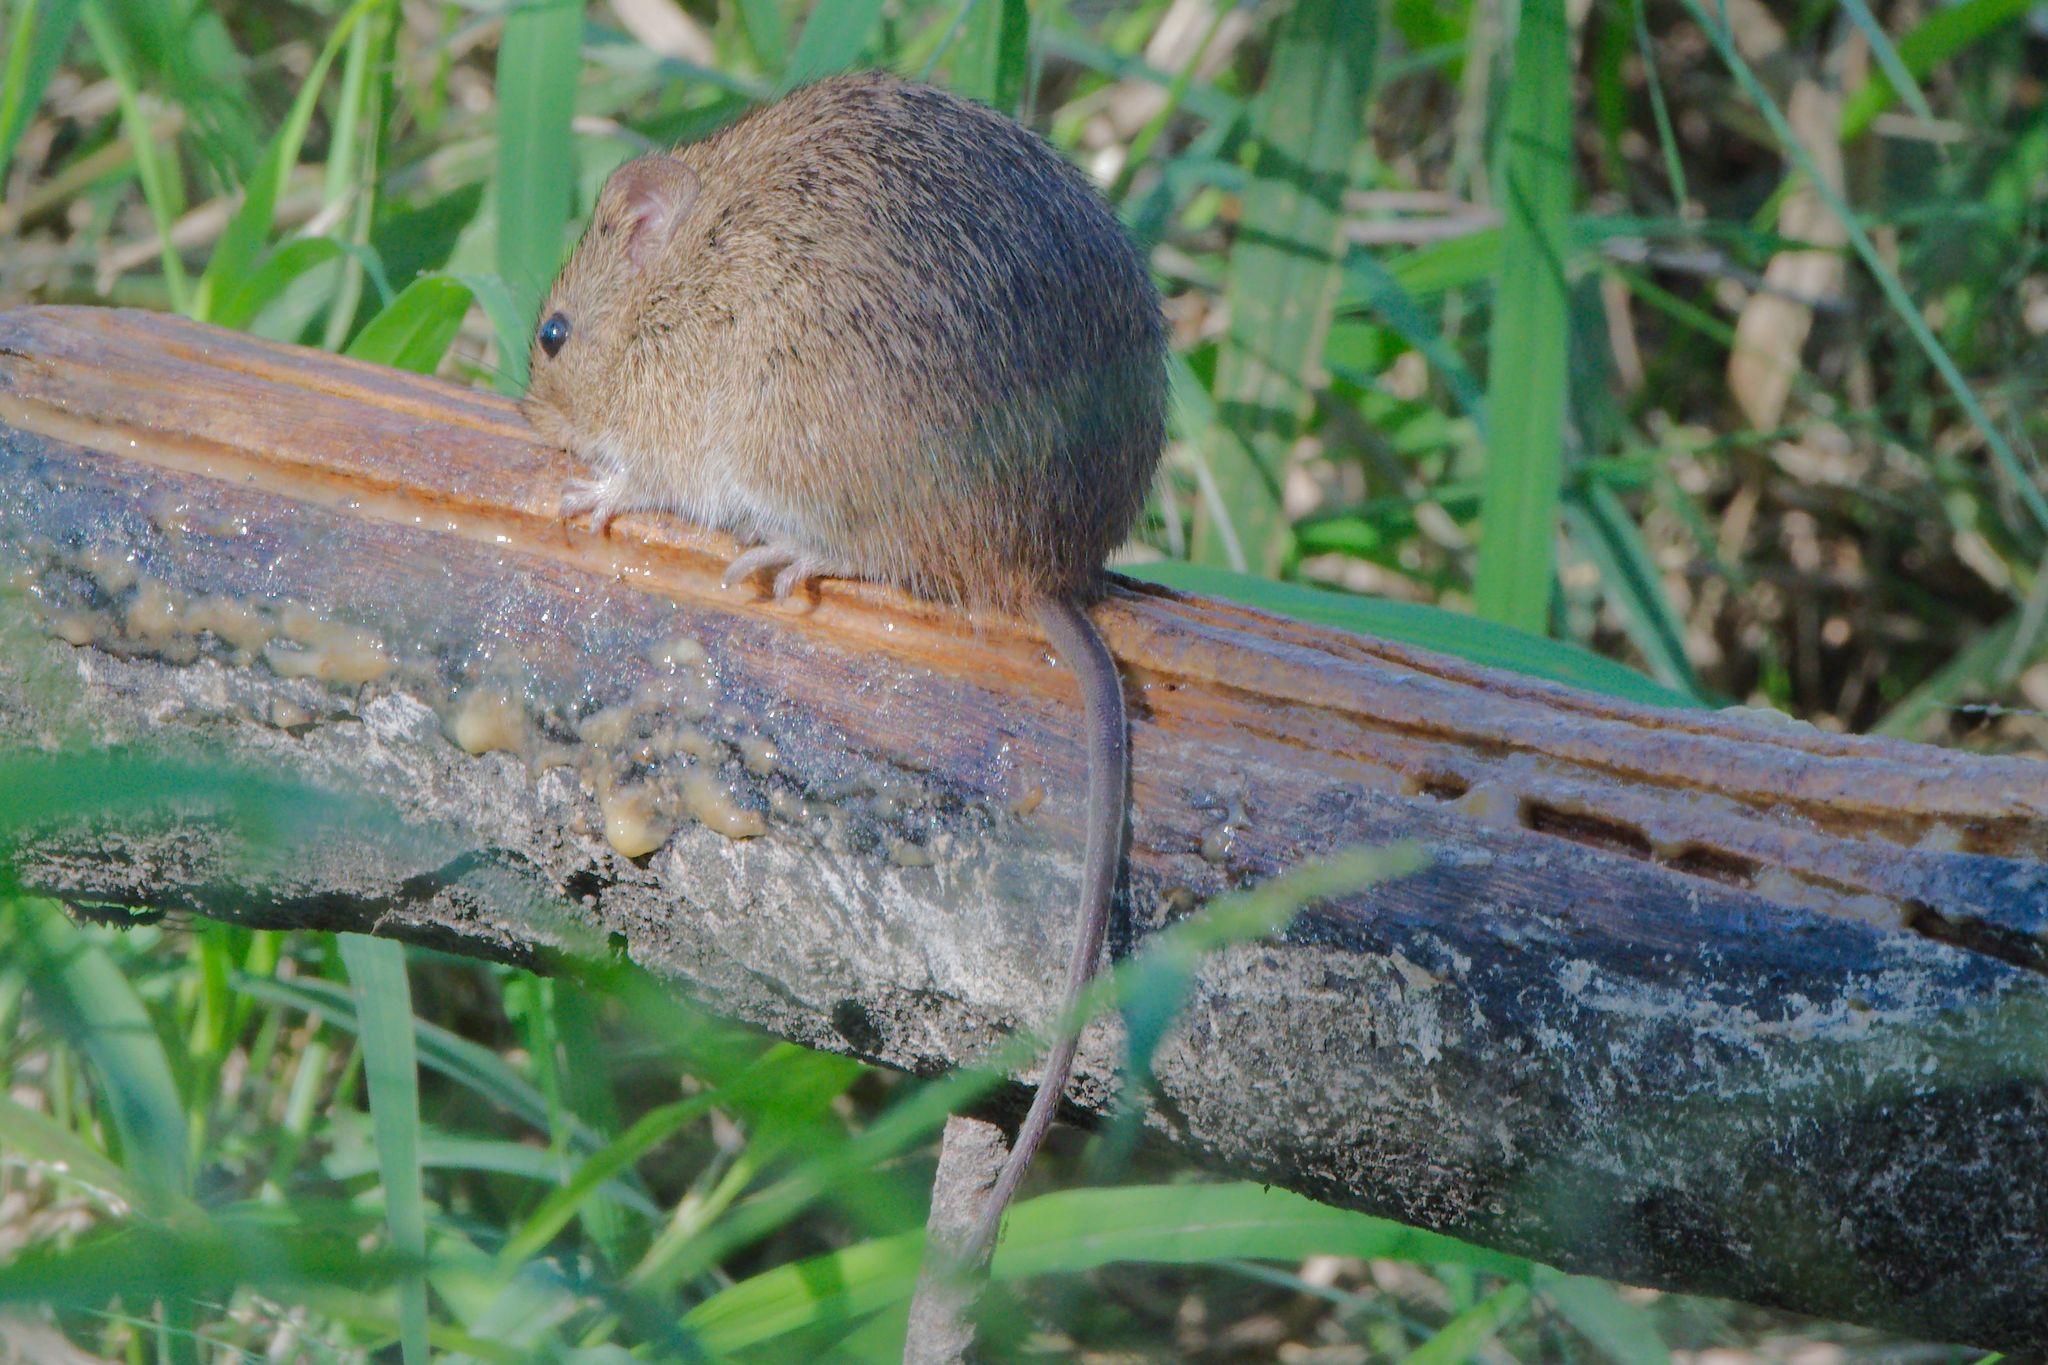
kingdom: Animalia
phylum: Chordata
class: Mammalia
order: Rodentia
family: Cricetidae
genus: Sigmodon
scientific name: Sigmodon hispidus
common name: Hispid cotton rat
